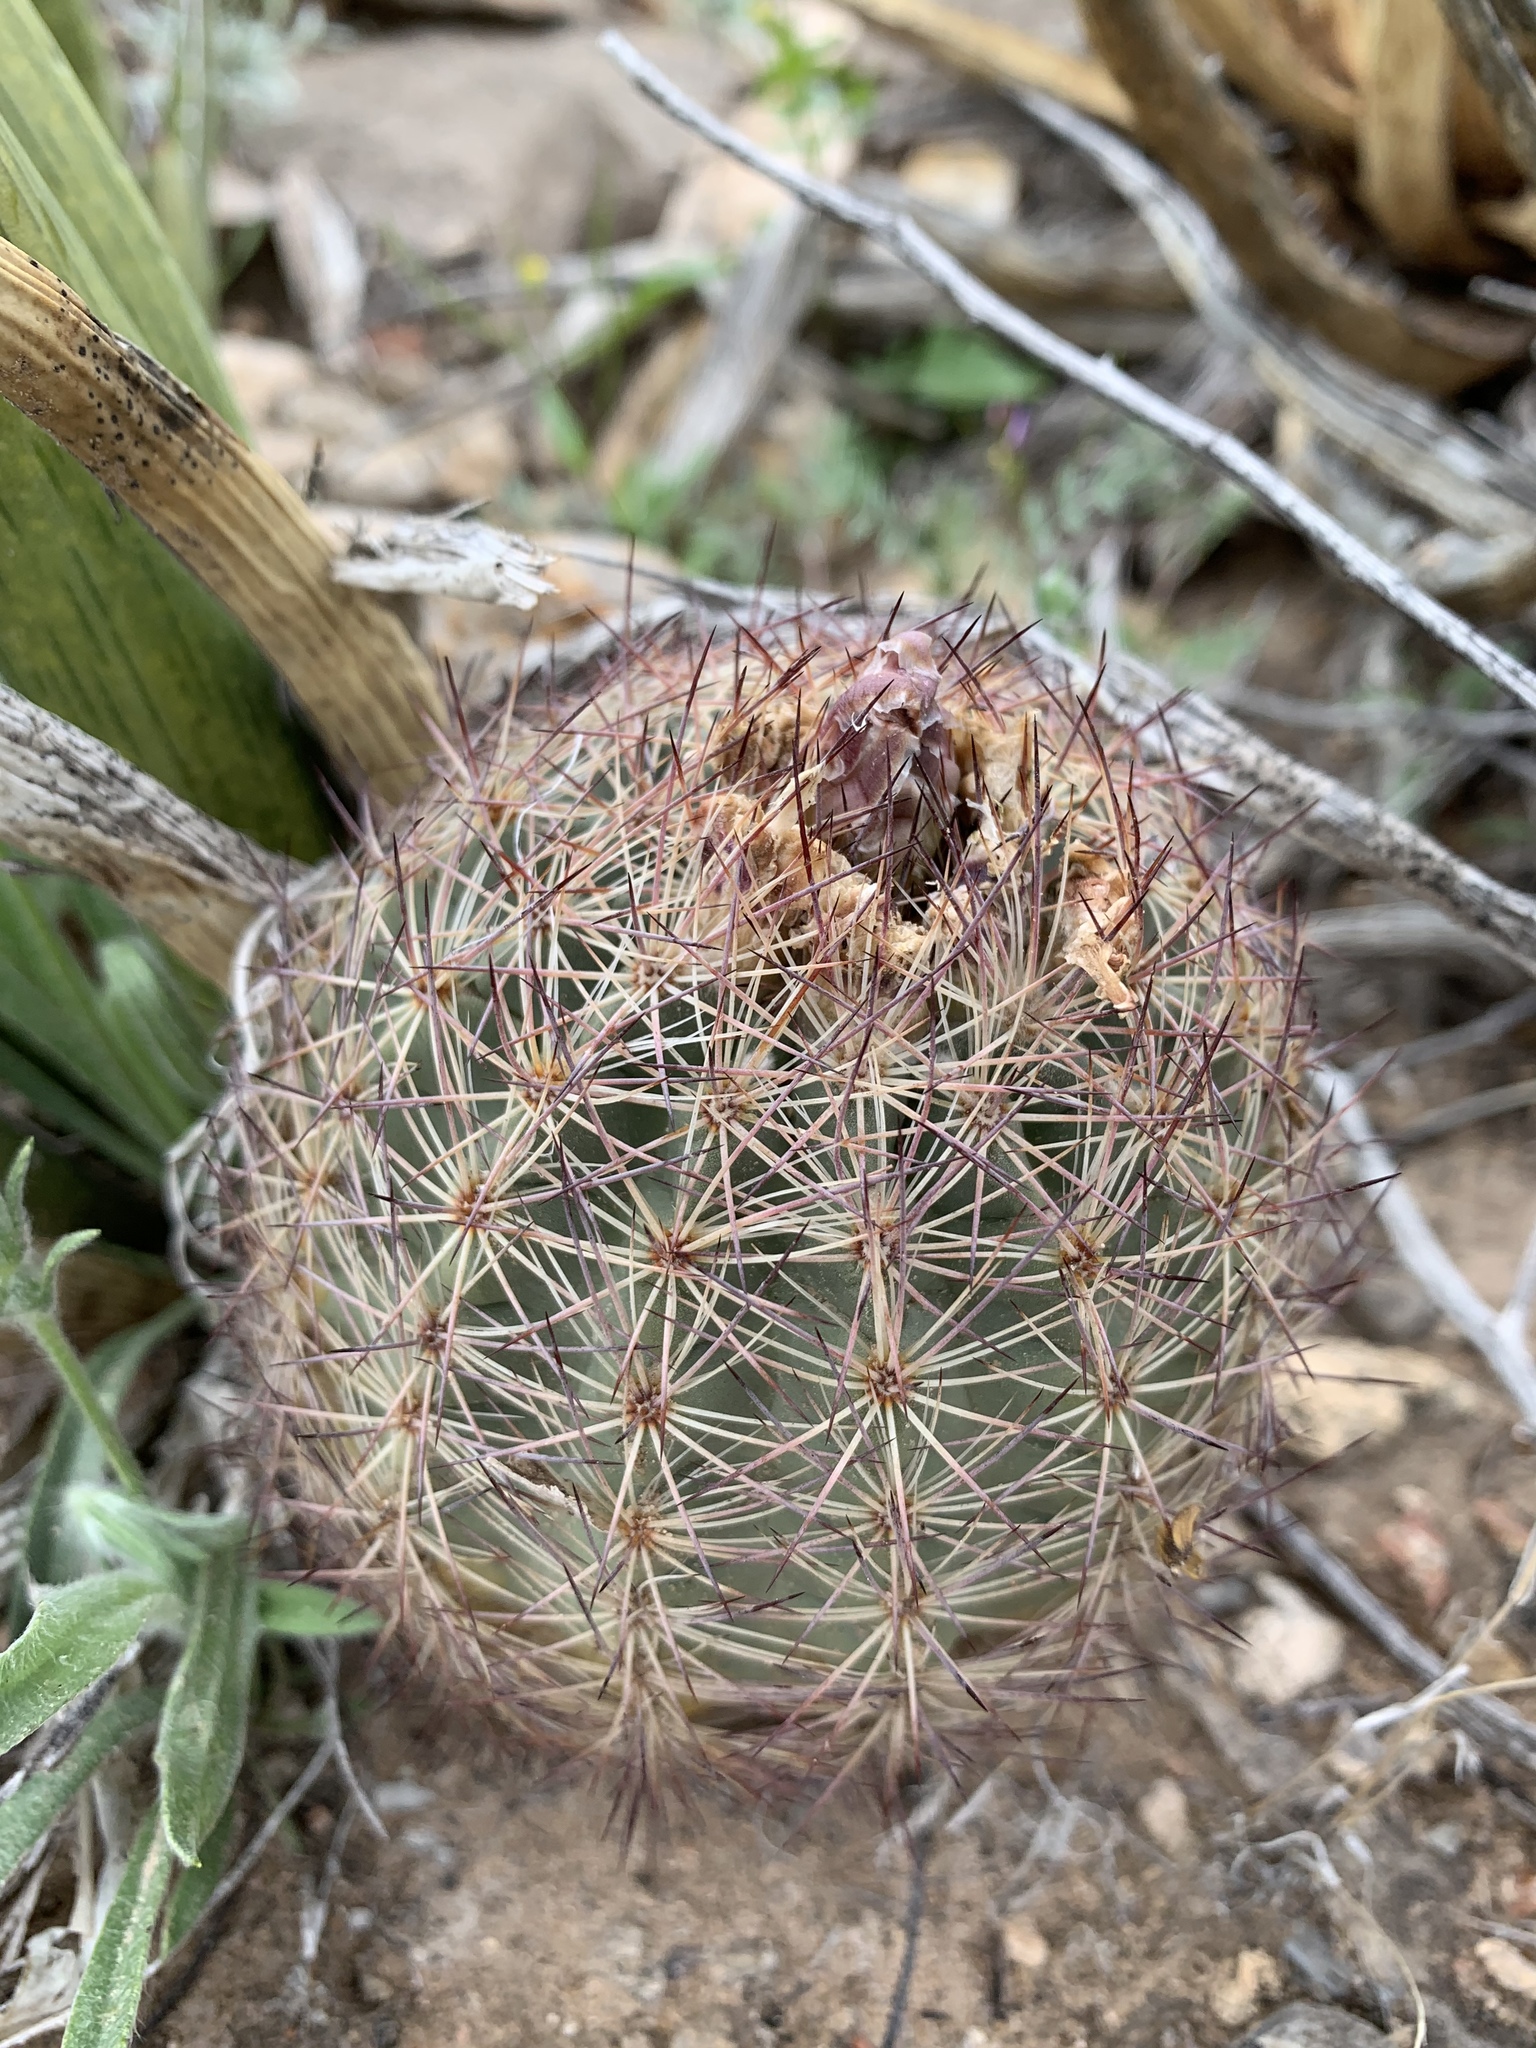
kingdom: Plantae
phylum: Tracheophyta
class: Magnoliopsida
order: Caryophyllales
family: Cactaceae
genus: Sclerocactus
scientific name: Sclerocactus intertextus
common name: White fish-hook cactus
